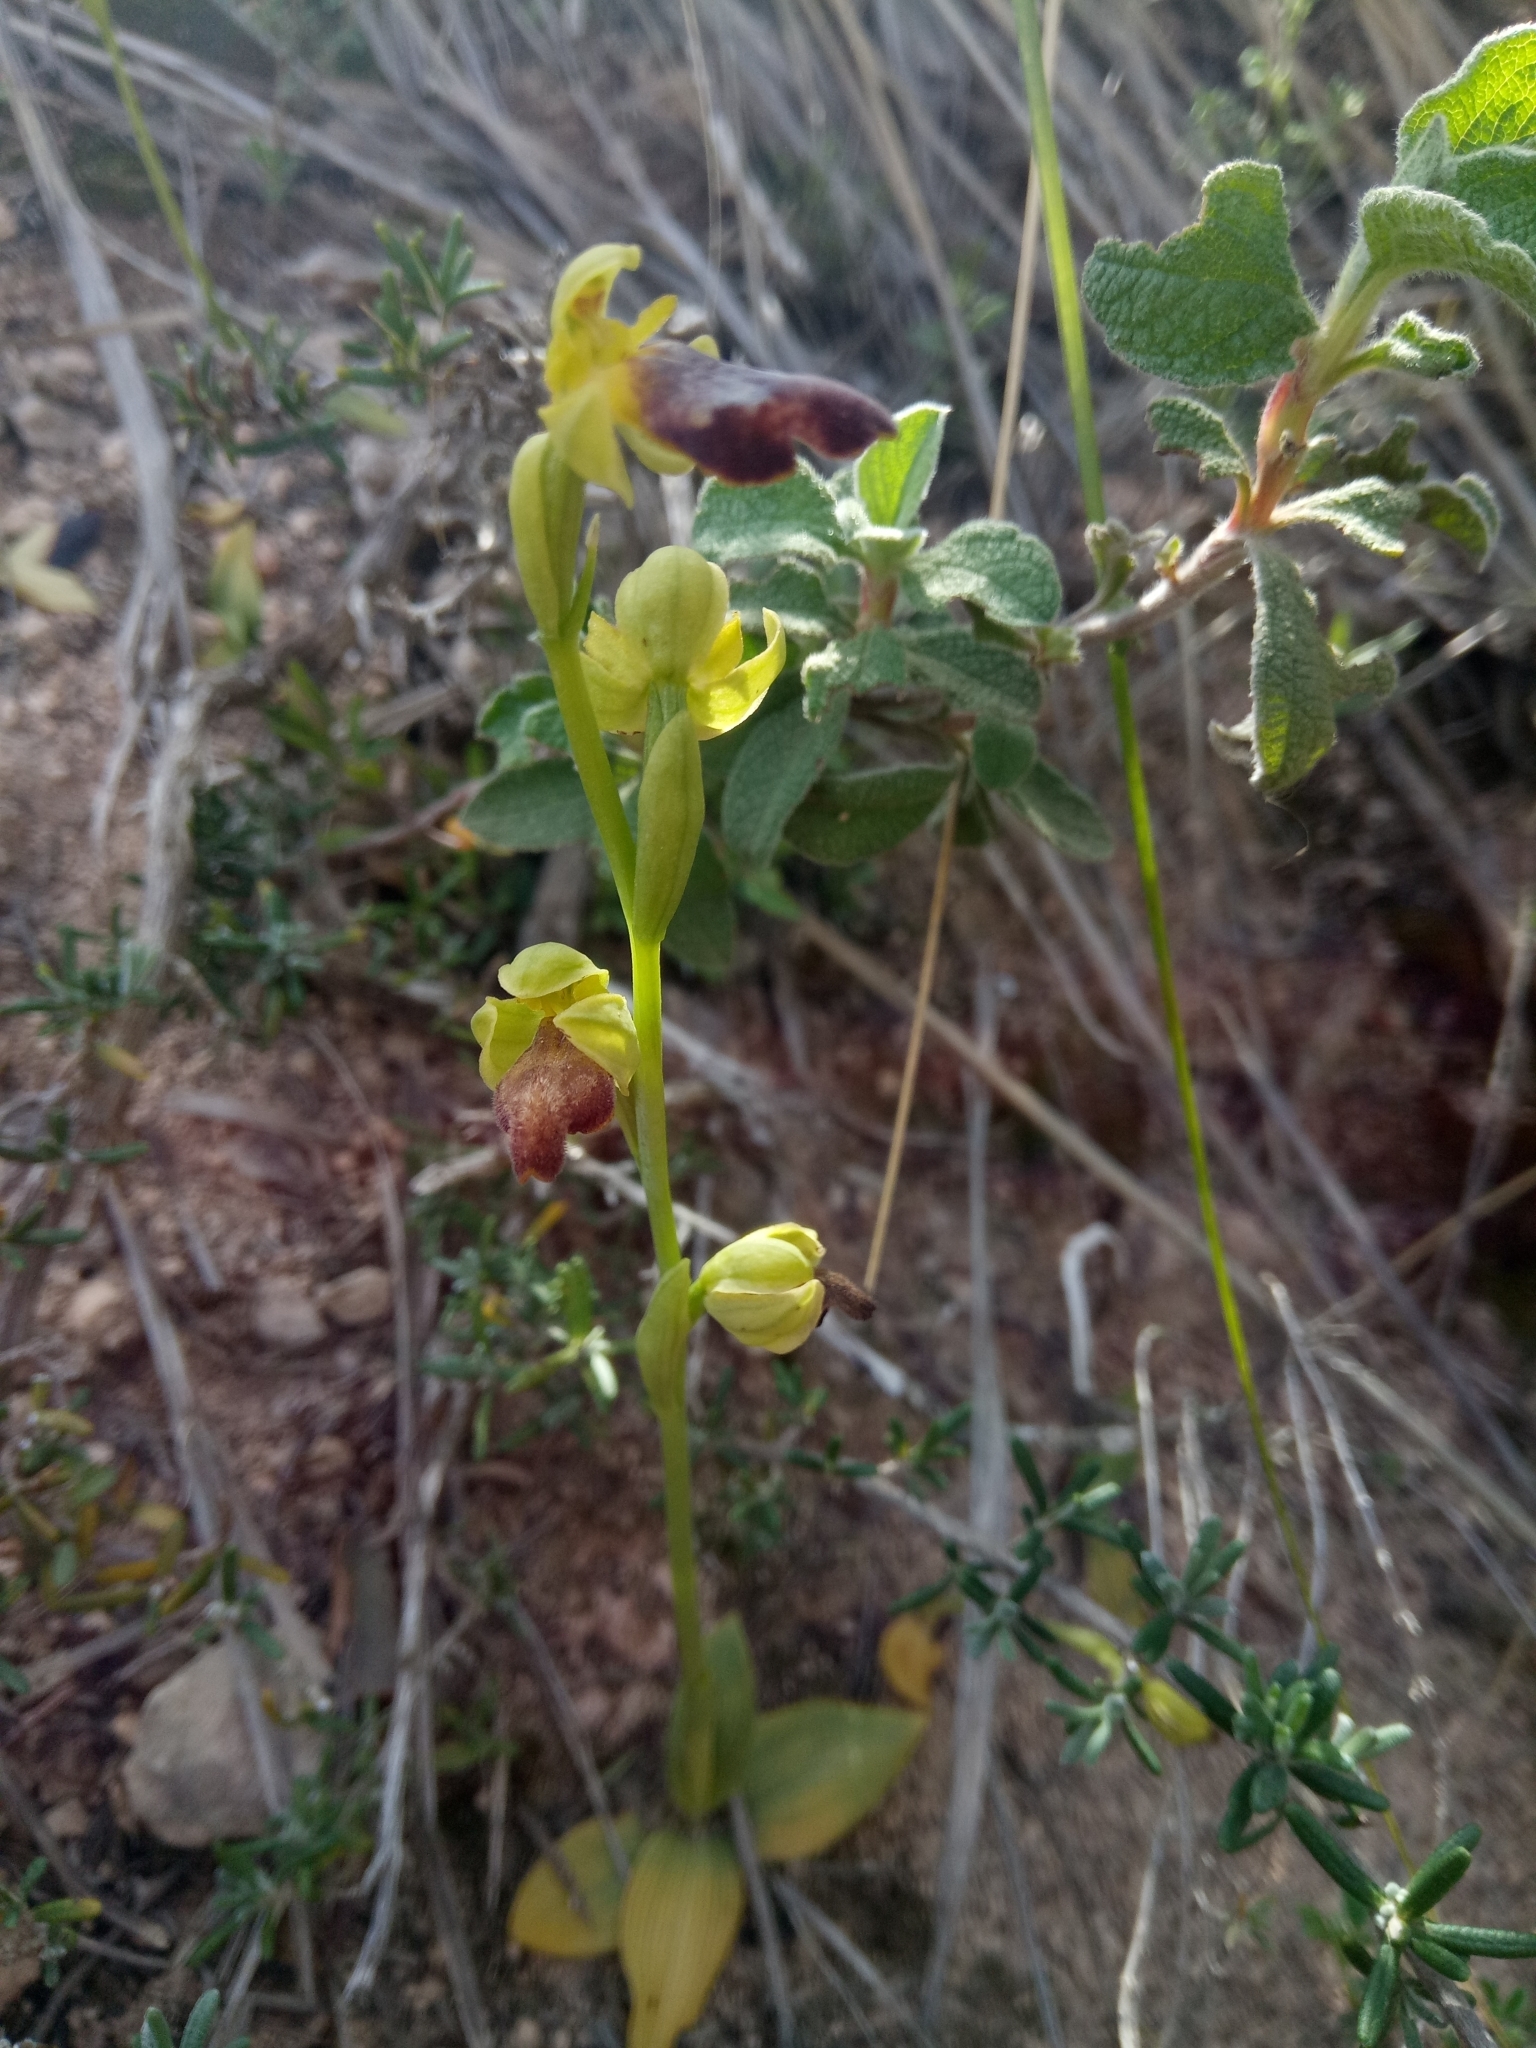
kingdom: Plantae
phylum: Tracheophyta
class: Liliopsida
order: Asparagales
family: Orchidaceae
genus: Ophrys
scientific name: Ophrys fusca
